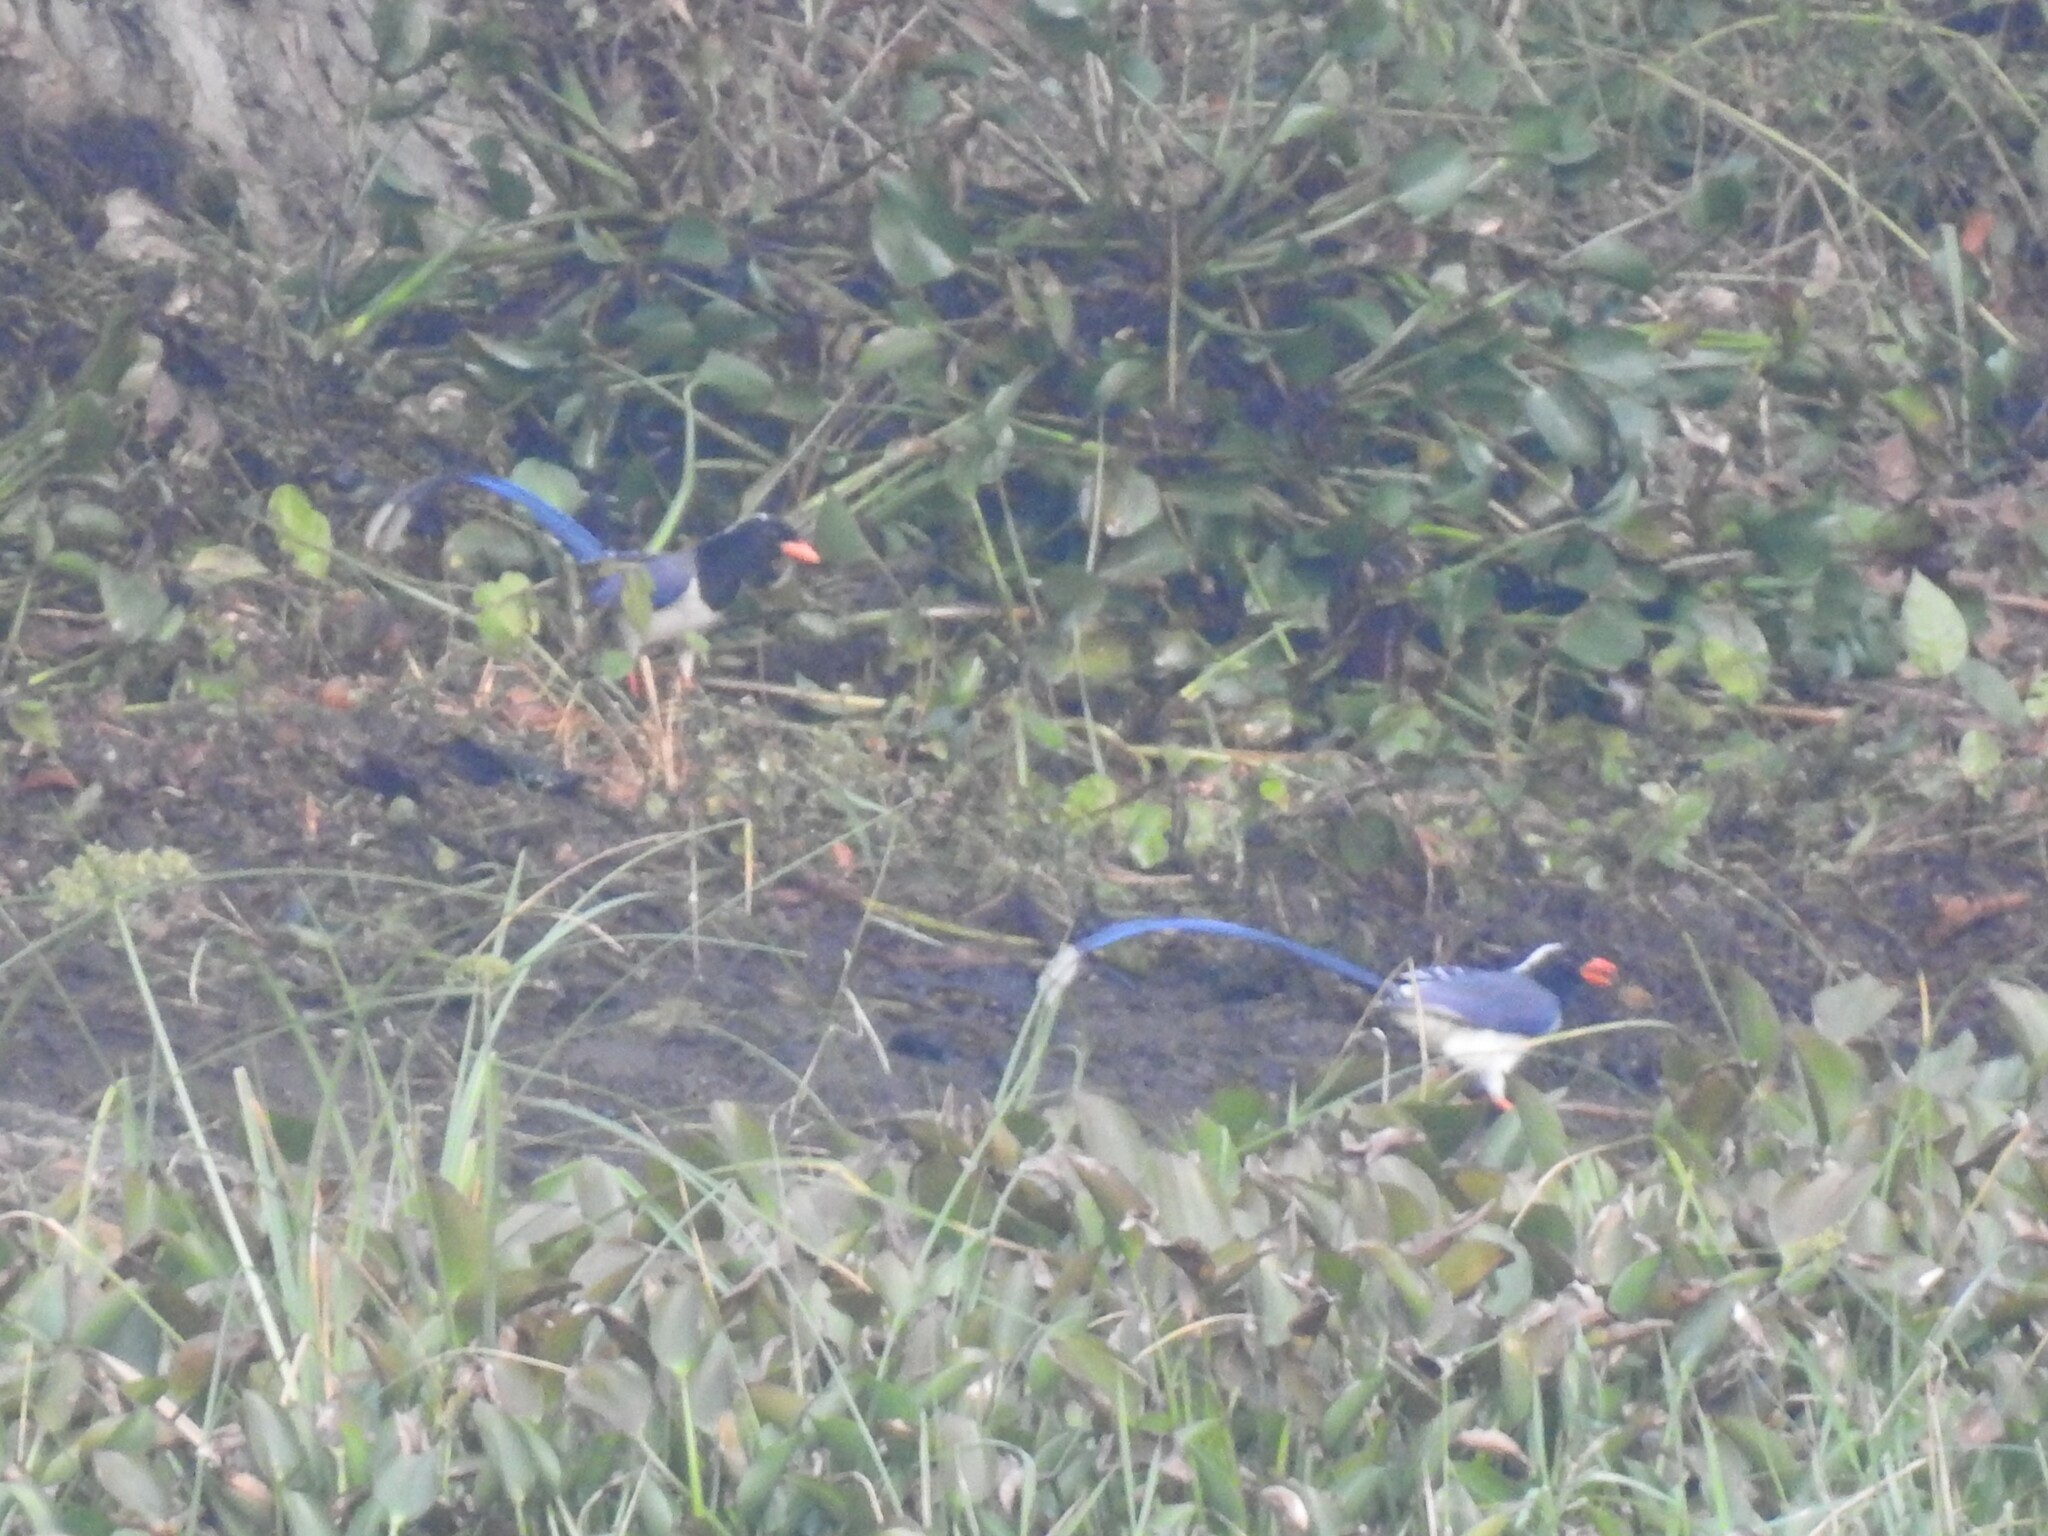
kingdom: Animalia
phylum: Chordata
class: Aves
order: Passeriformes
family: Corvidae
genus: Urocissa
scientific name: Urocissa erythroryncha
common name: Red-billed blue magpie
